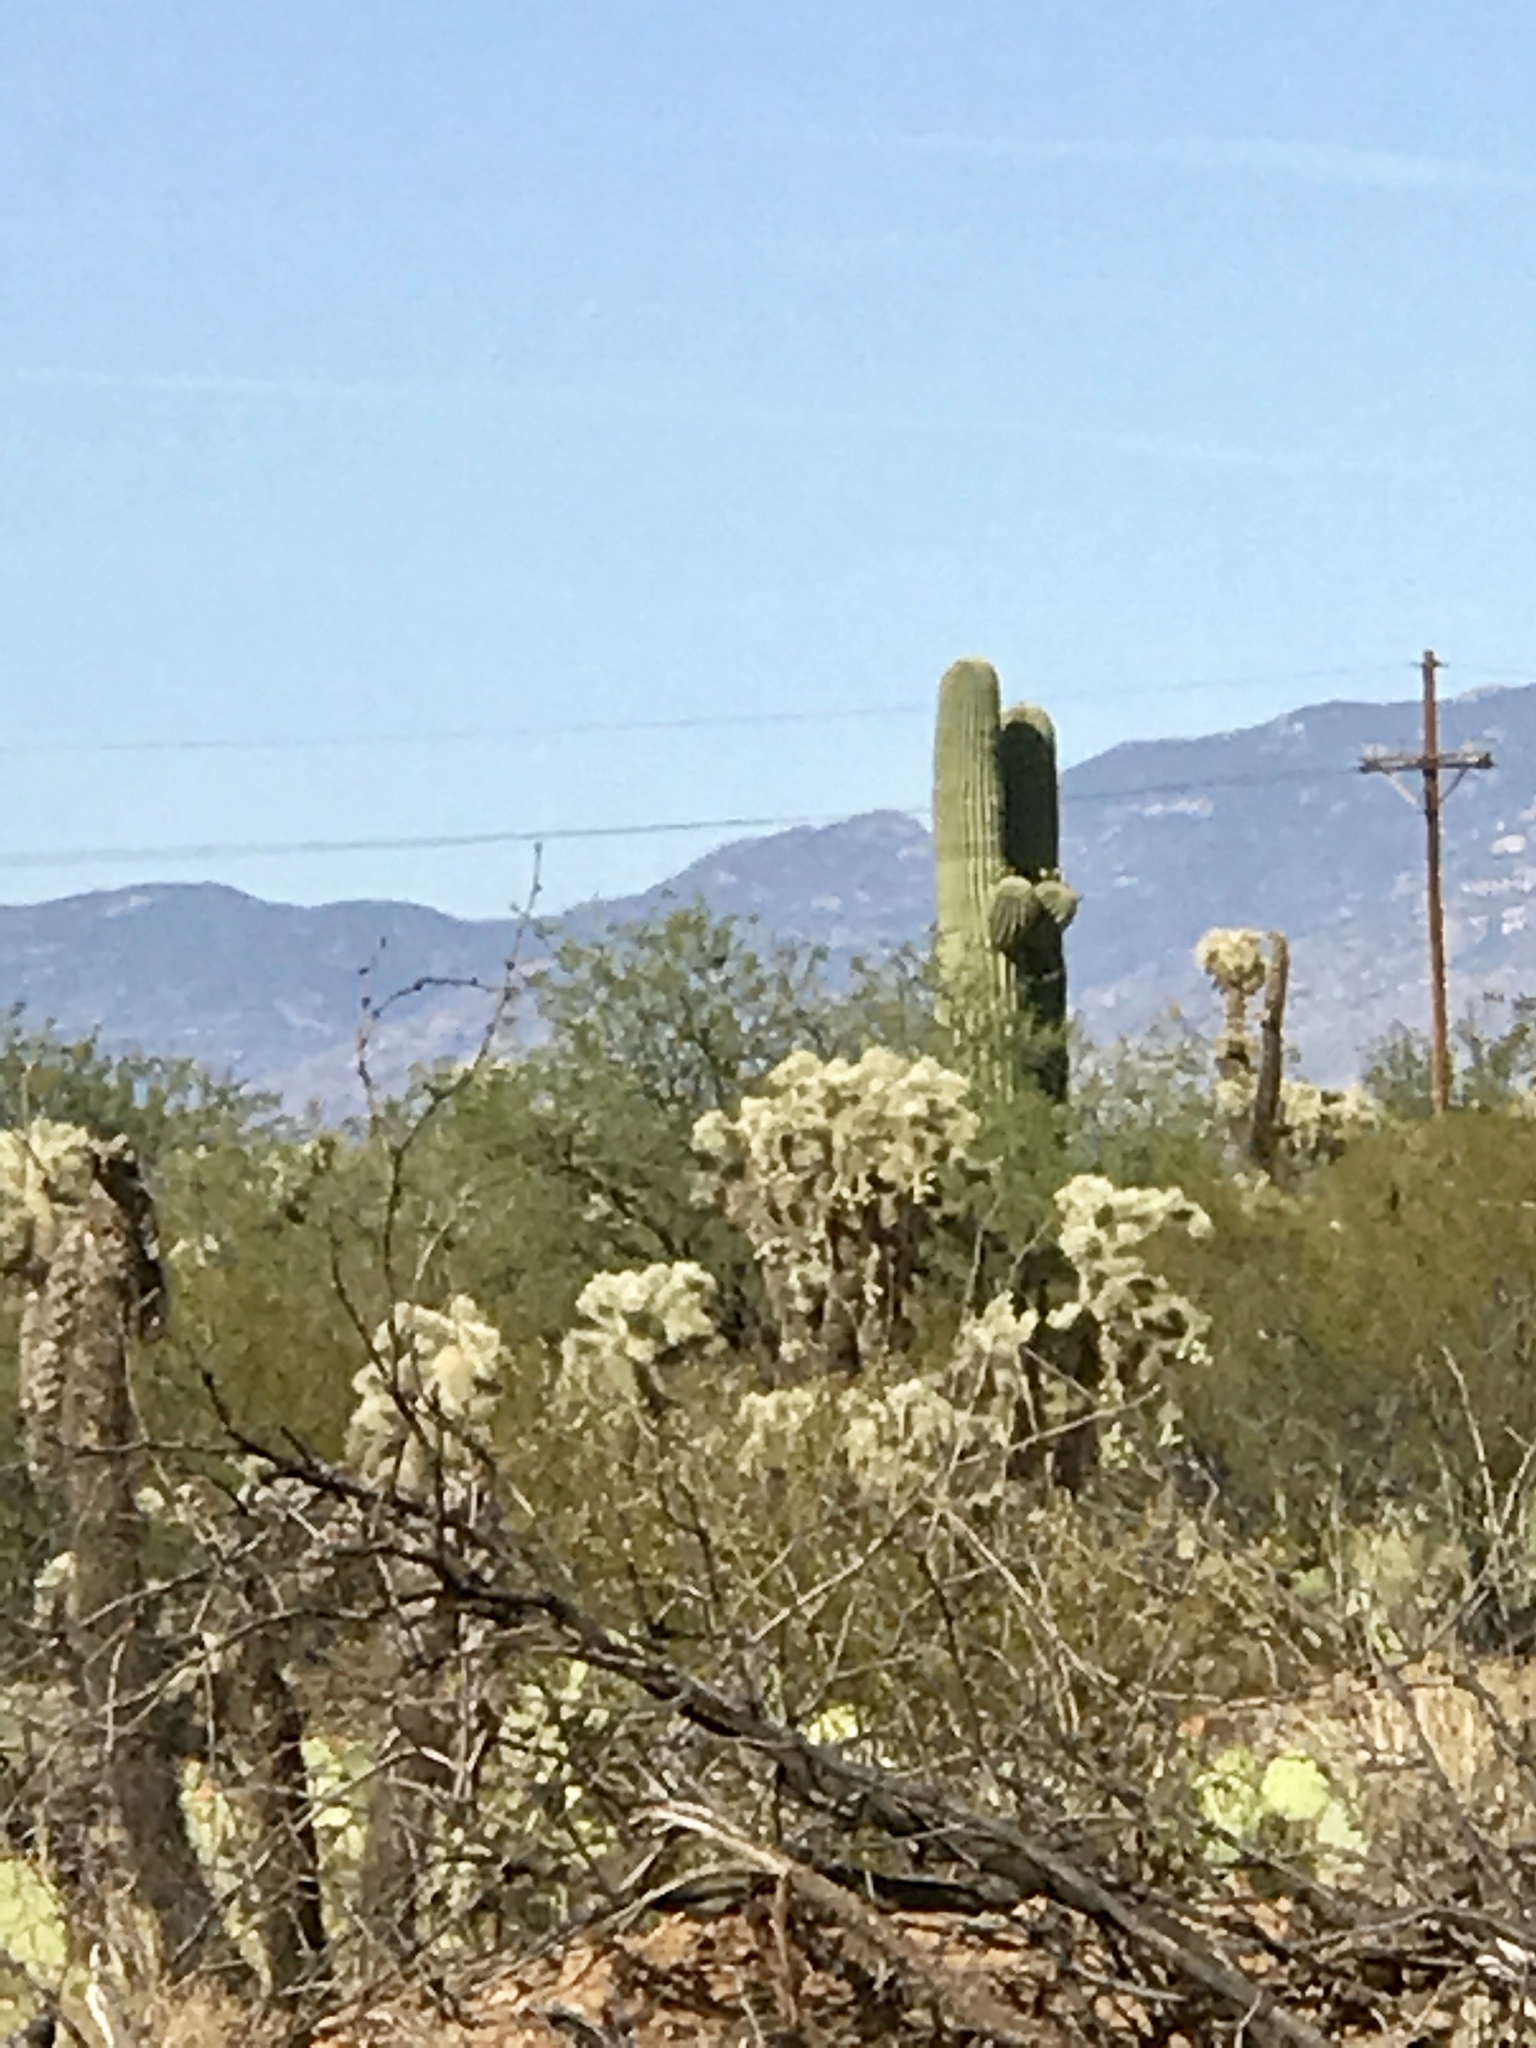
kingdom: Plantae
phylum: Tracheophyta
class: Magnoliopsida
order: Caryophyllales
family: Cactaceae
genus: Cylindropuntia
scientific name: Cylindropuntia fulgida
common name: Jumping cholla
